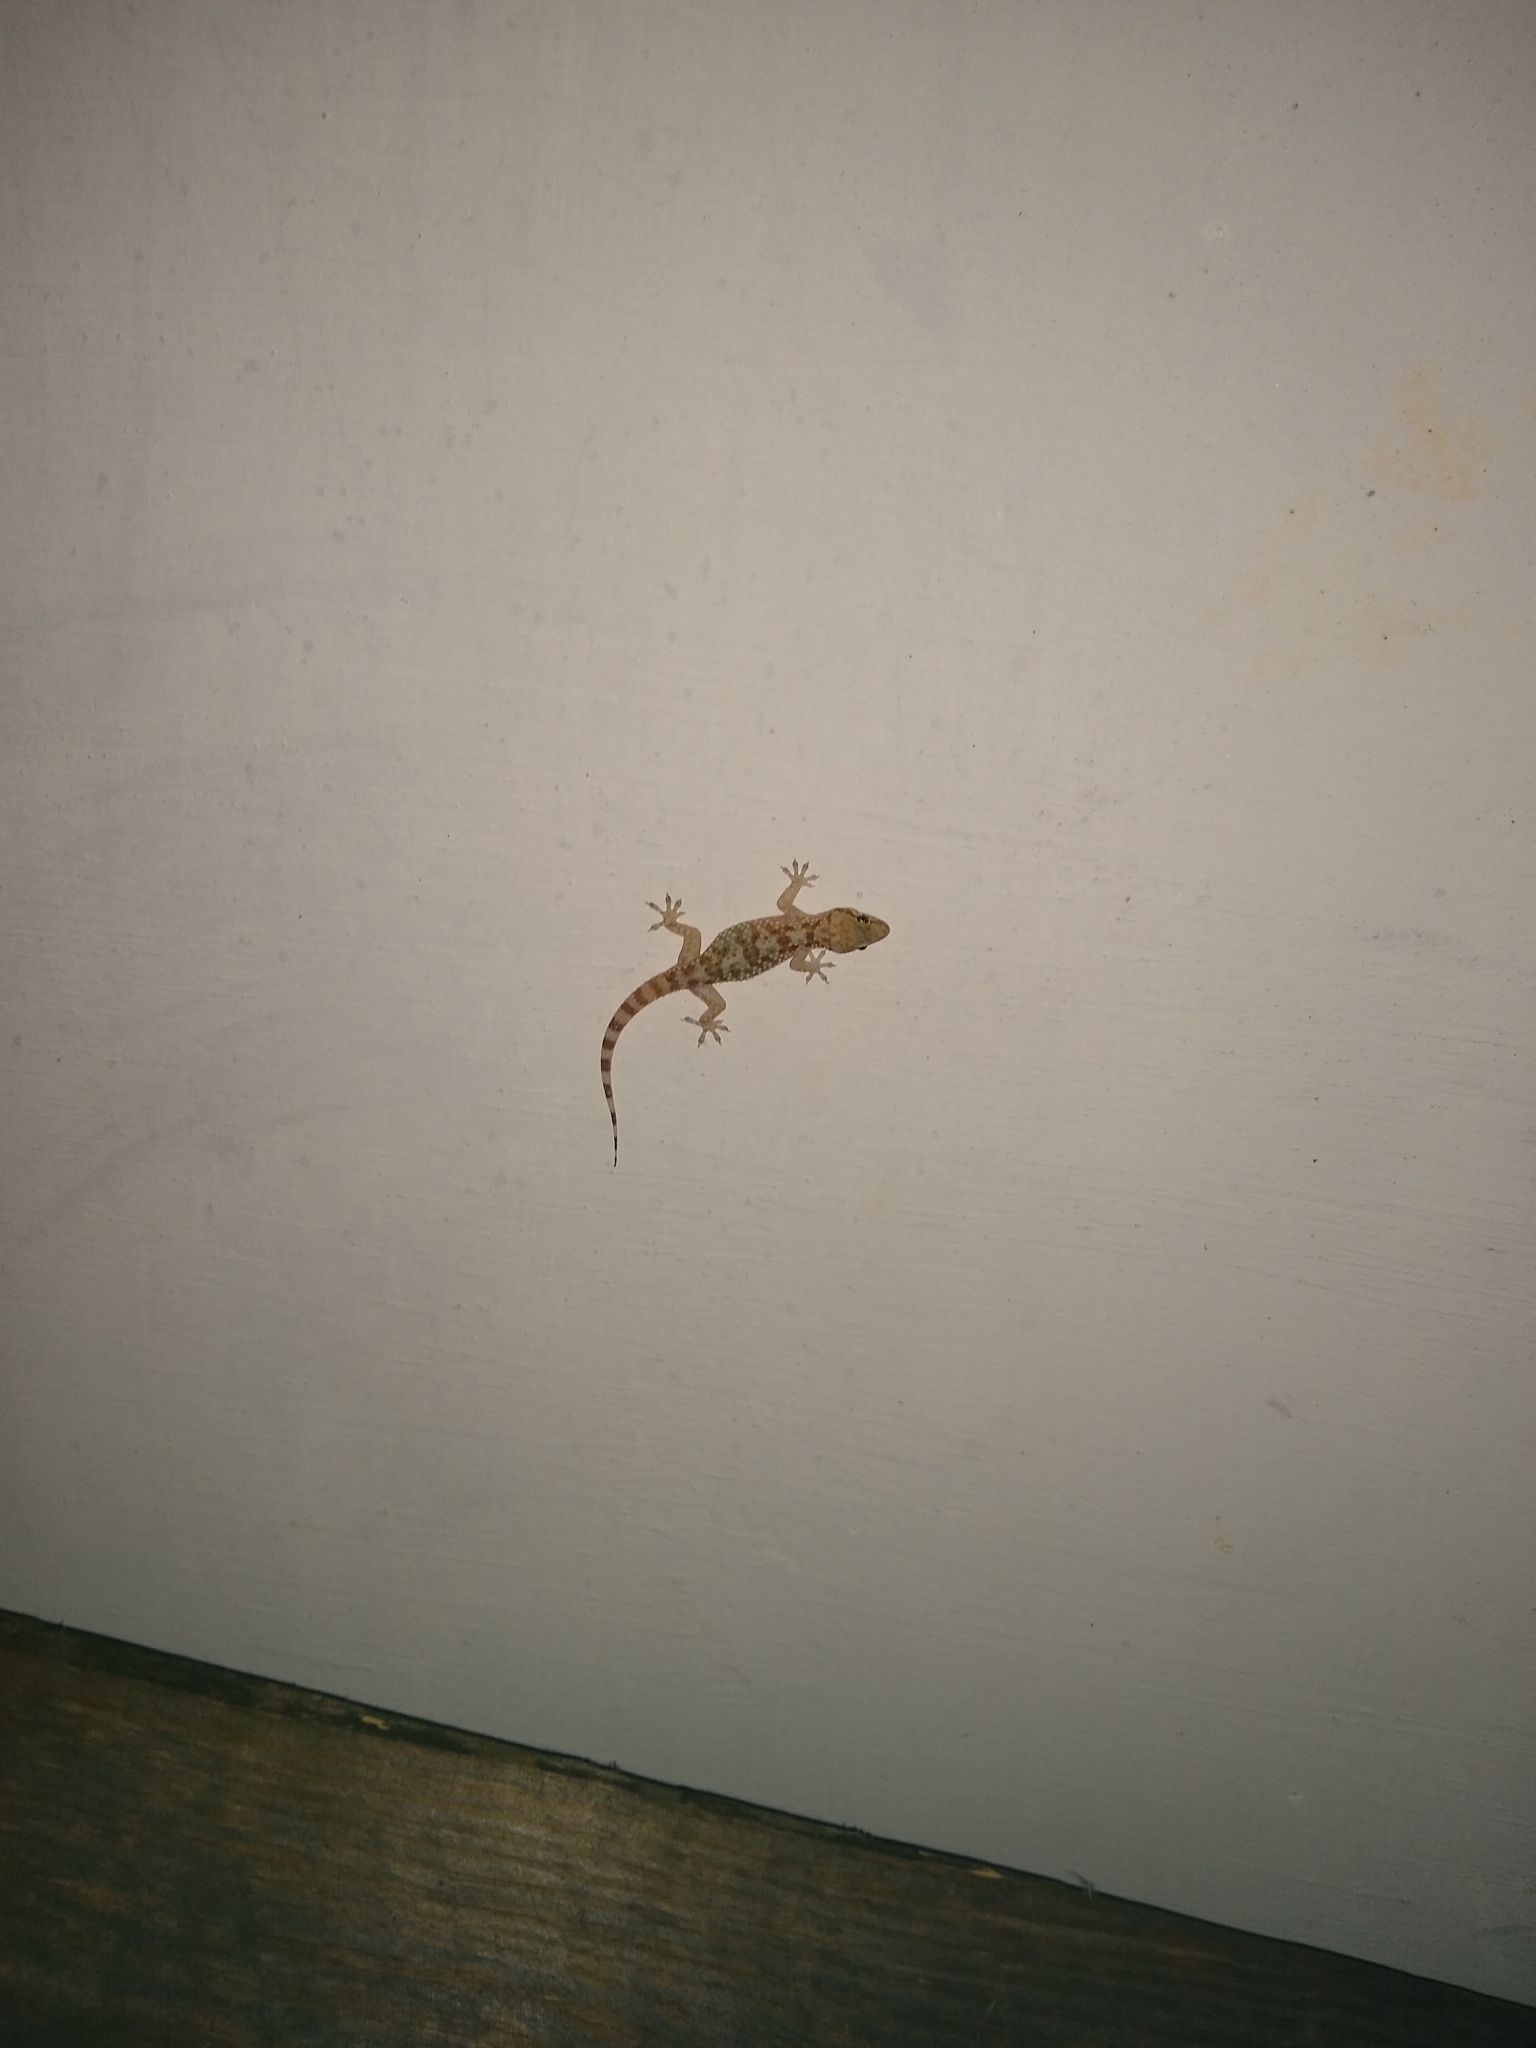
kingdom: Animalia
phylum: Chordata
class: Squamata
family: Gekkonidae
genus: Hemidactylus
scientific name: Hemidactylus turcicus
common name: Turkish gecko
